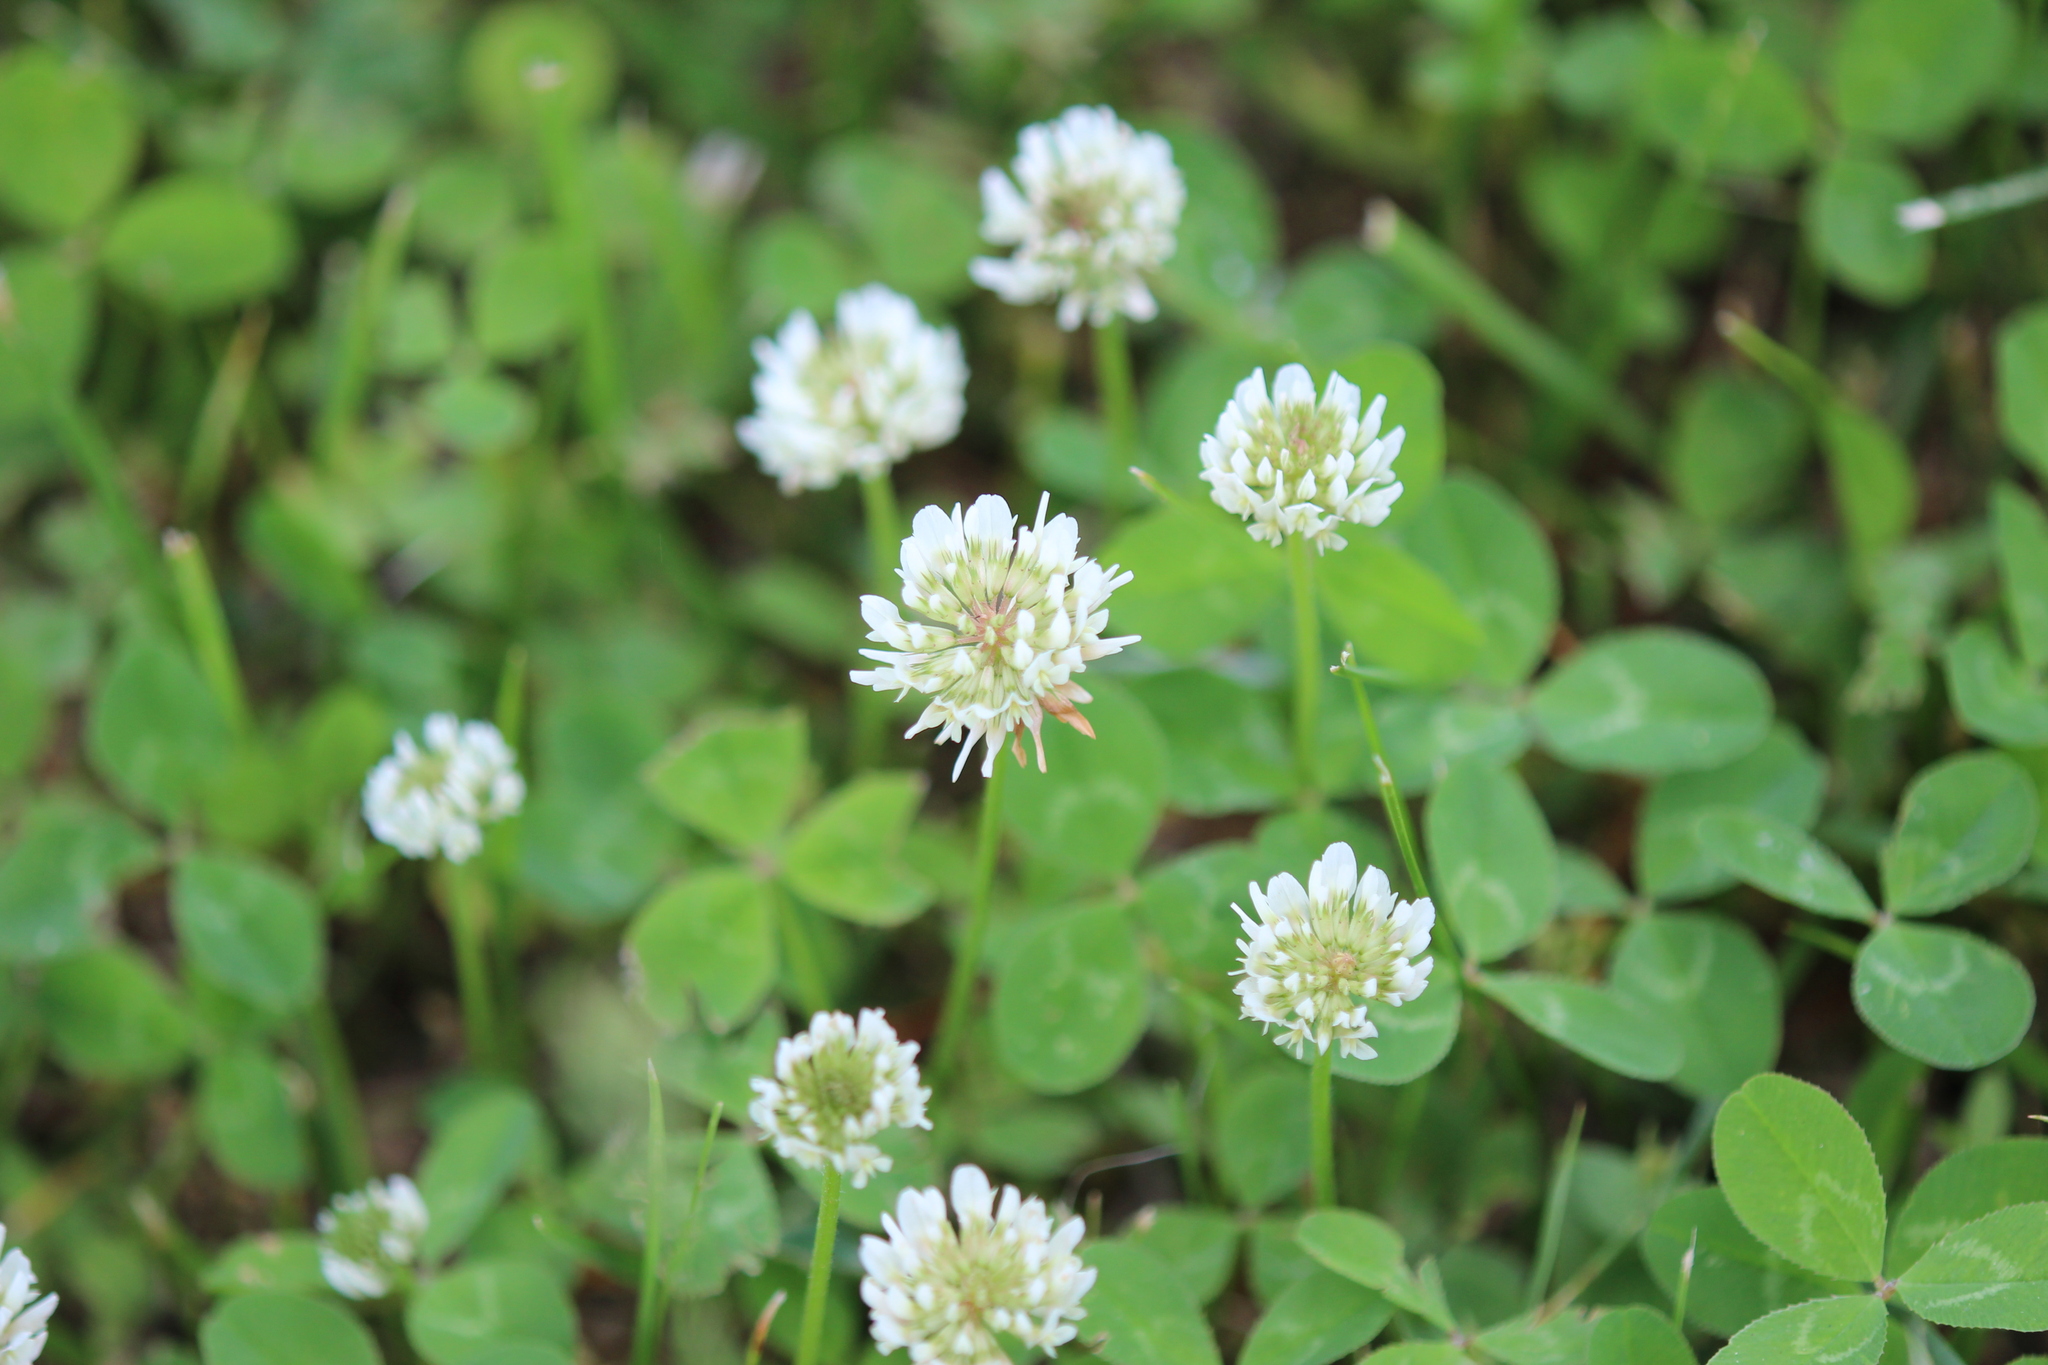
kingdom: Plantae
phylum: Tracheophyta
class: Magnoliopsida
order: Fabales
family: Fabaceae
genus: Trifolium
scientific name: Trifolium repens
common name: White clover
